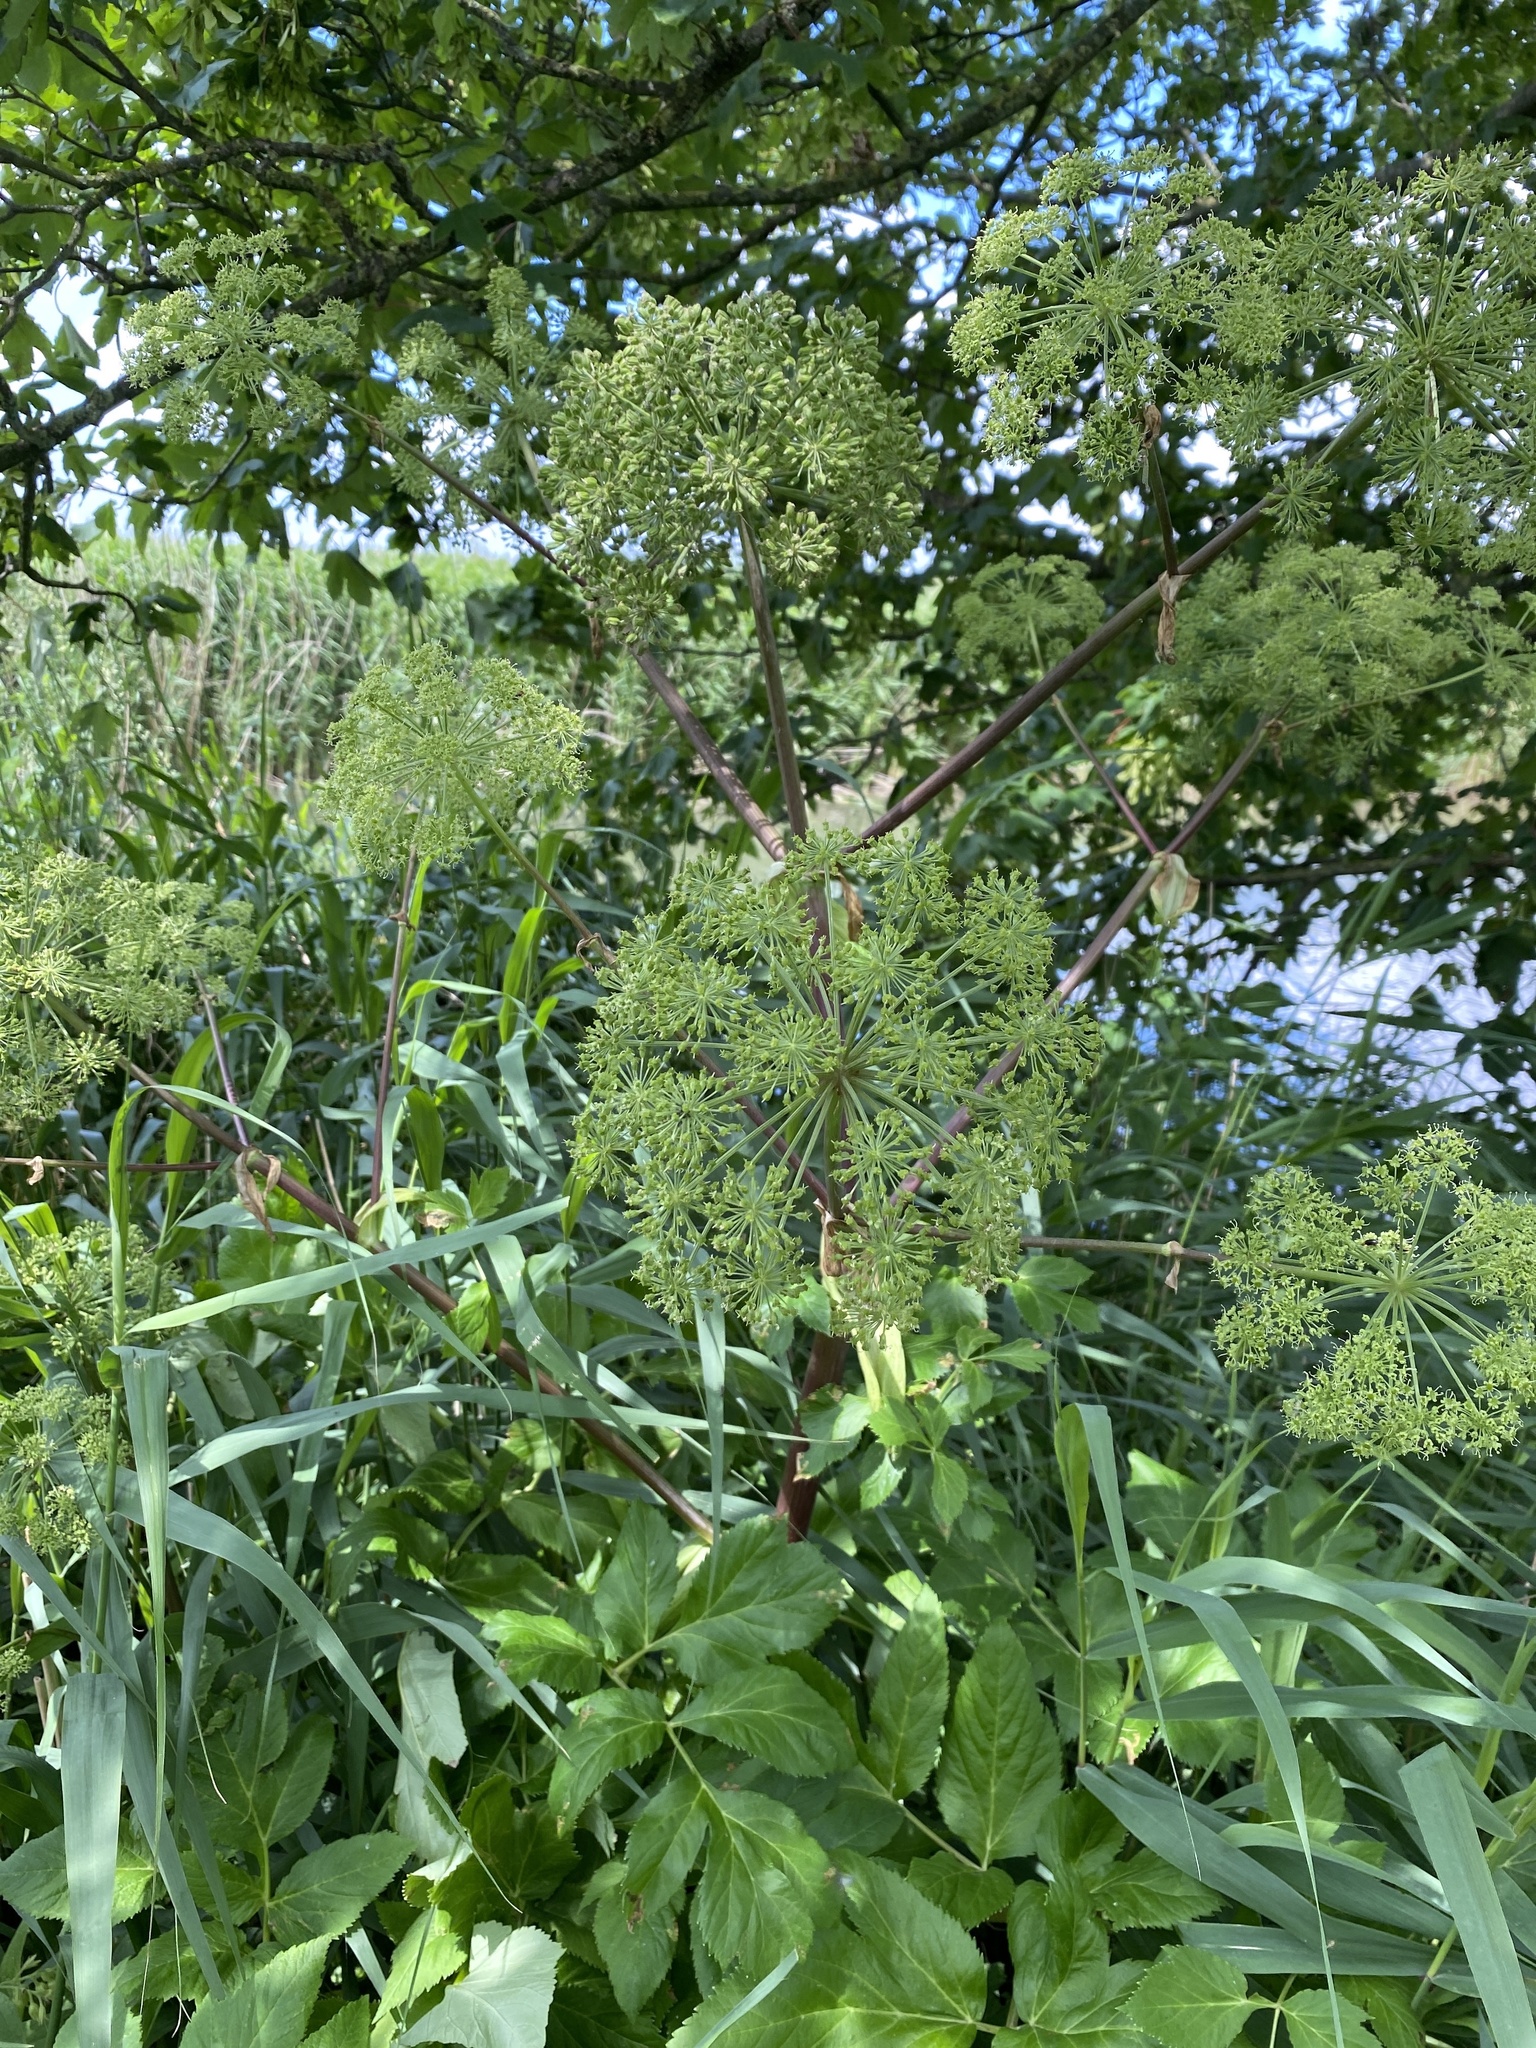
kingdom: Plantae
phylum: Tracheophyta
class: Magnoliopsida
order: Apiales
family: Apiaceae
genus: Angelica
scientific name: Angelica archangelica
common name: Garden angelica
